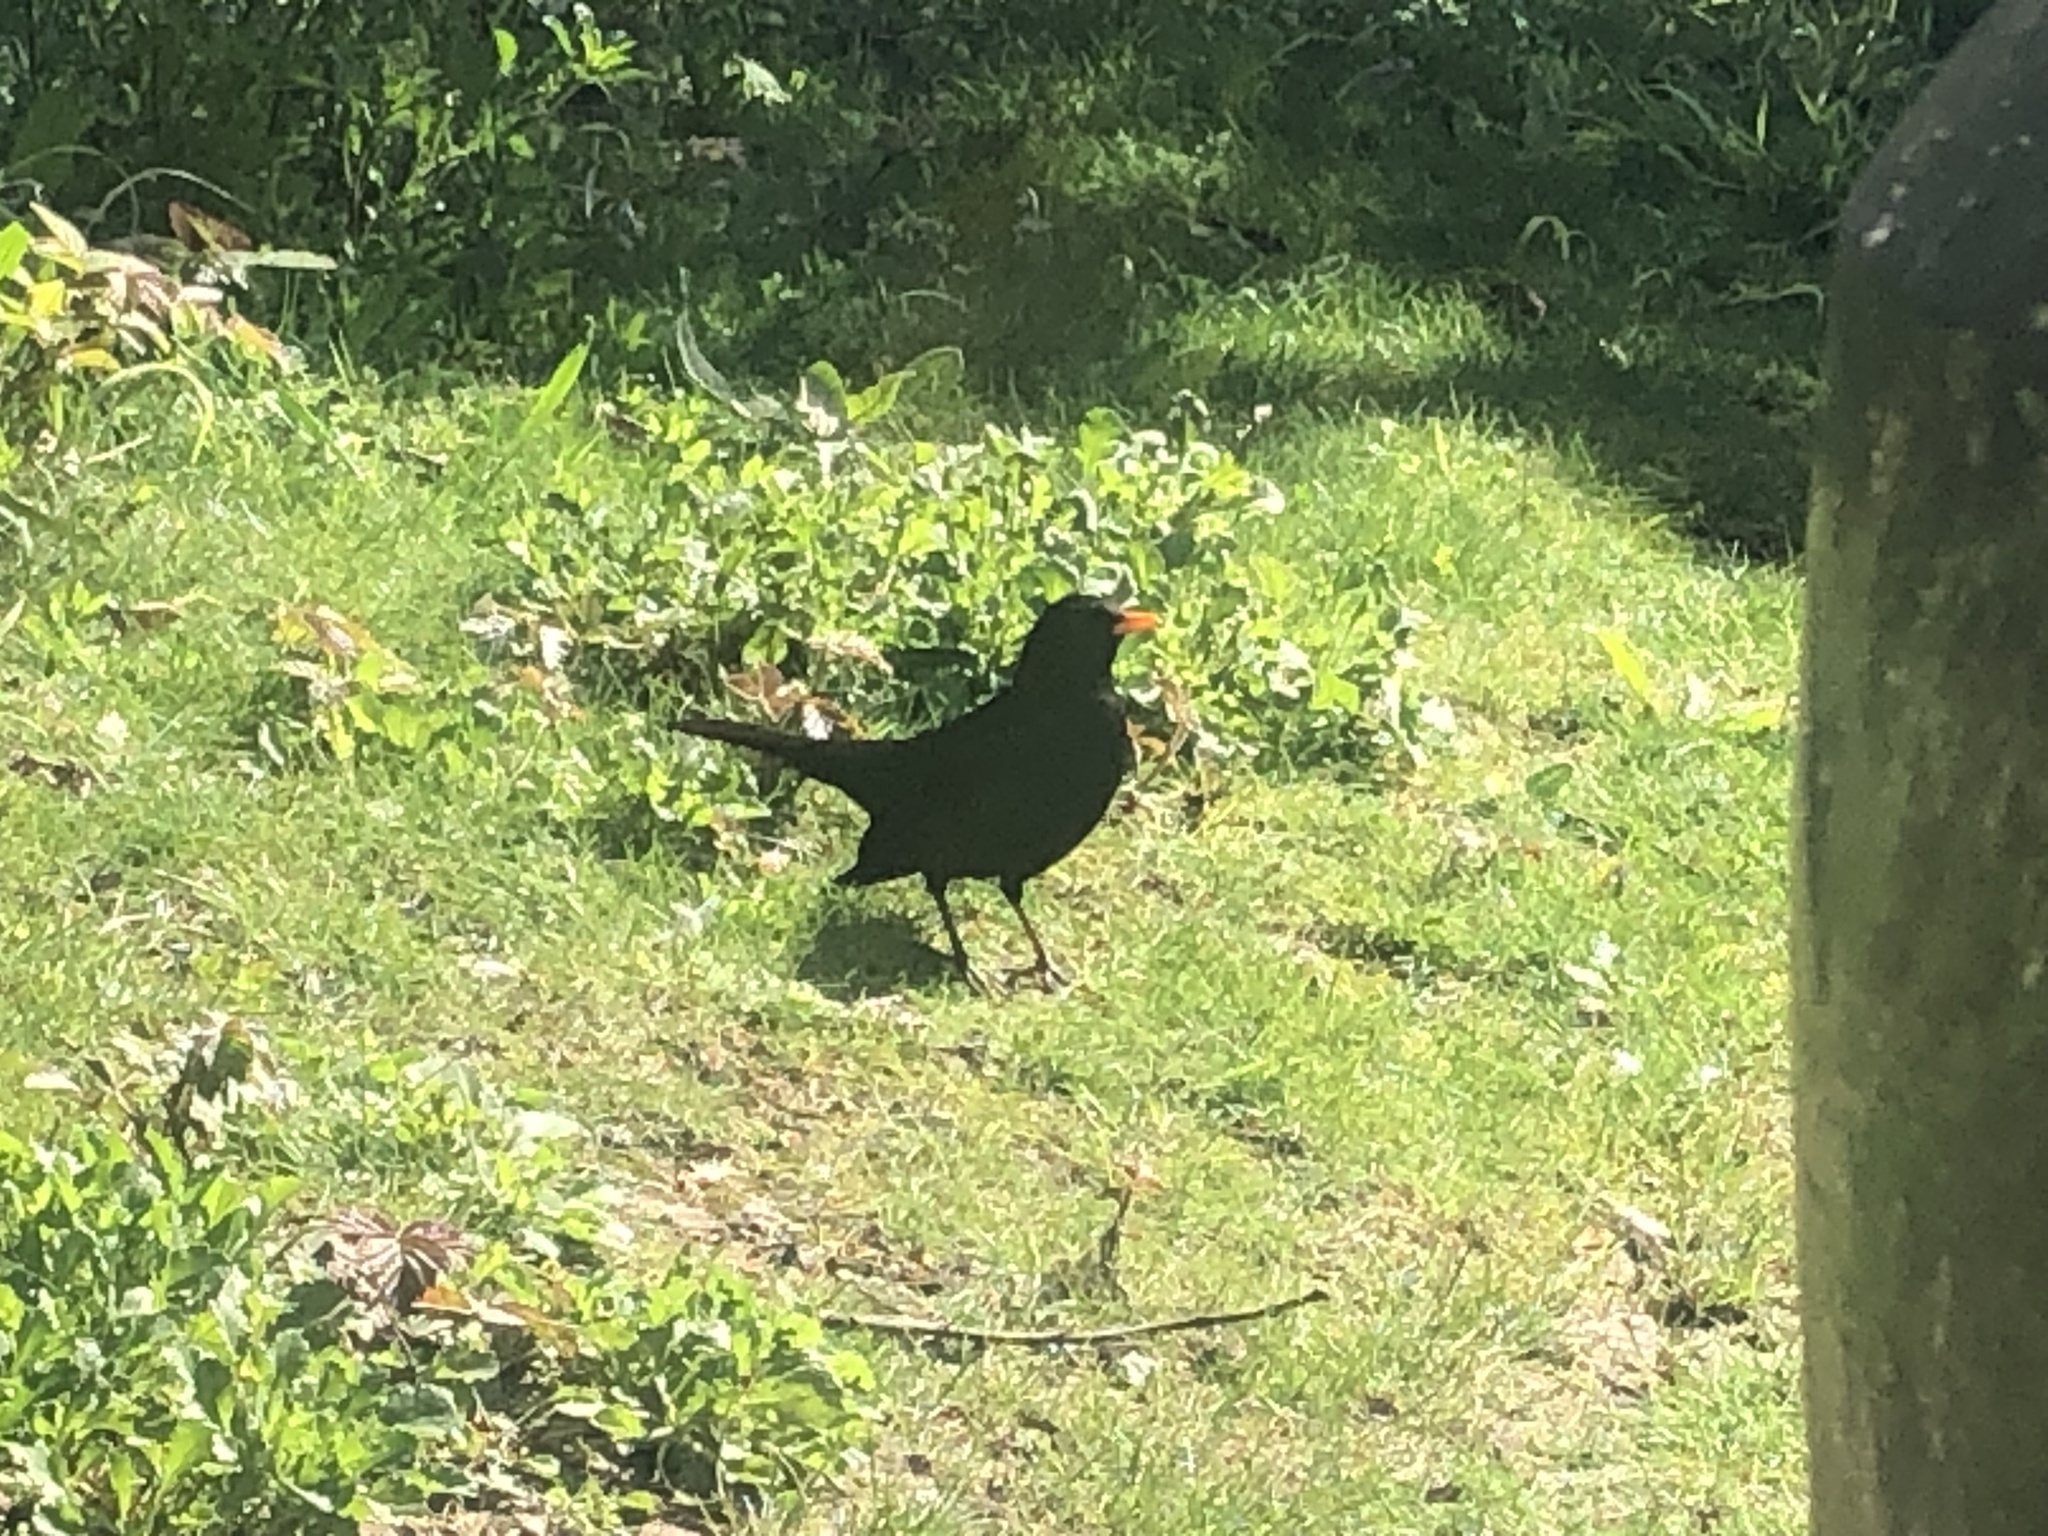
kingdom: Animalia
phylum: Chordata
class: Aves
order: Passeriformes
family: Turdidae
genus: Turdus
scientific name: Turdus merula
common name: Common blackbird
